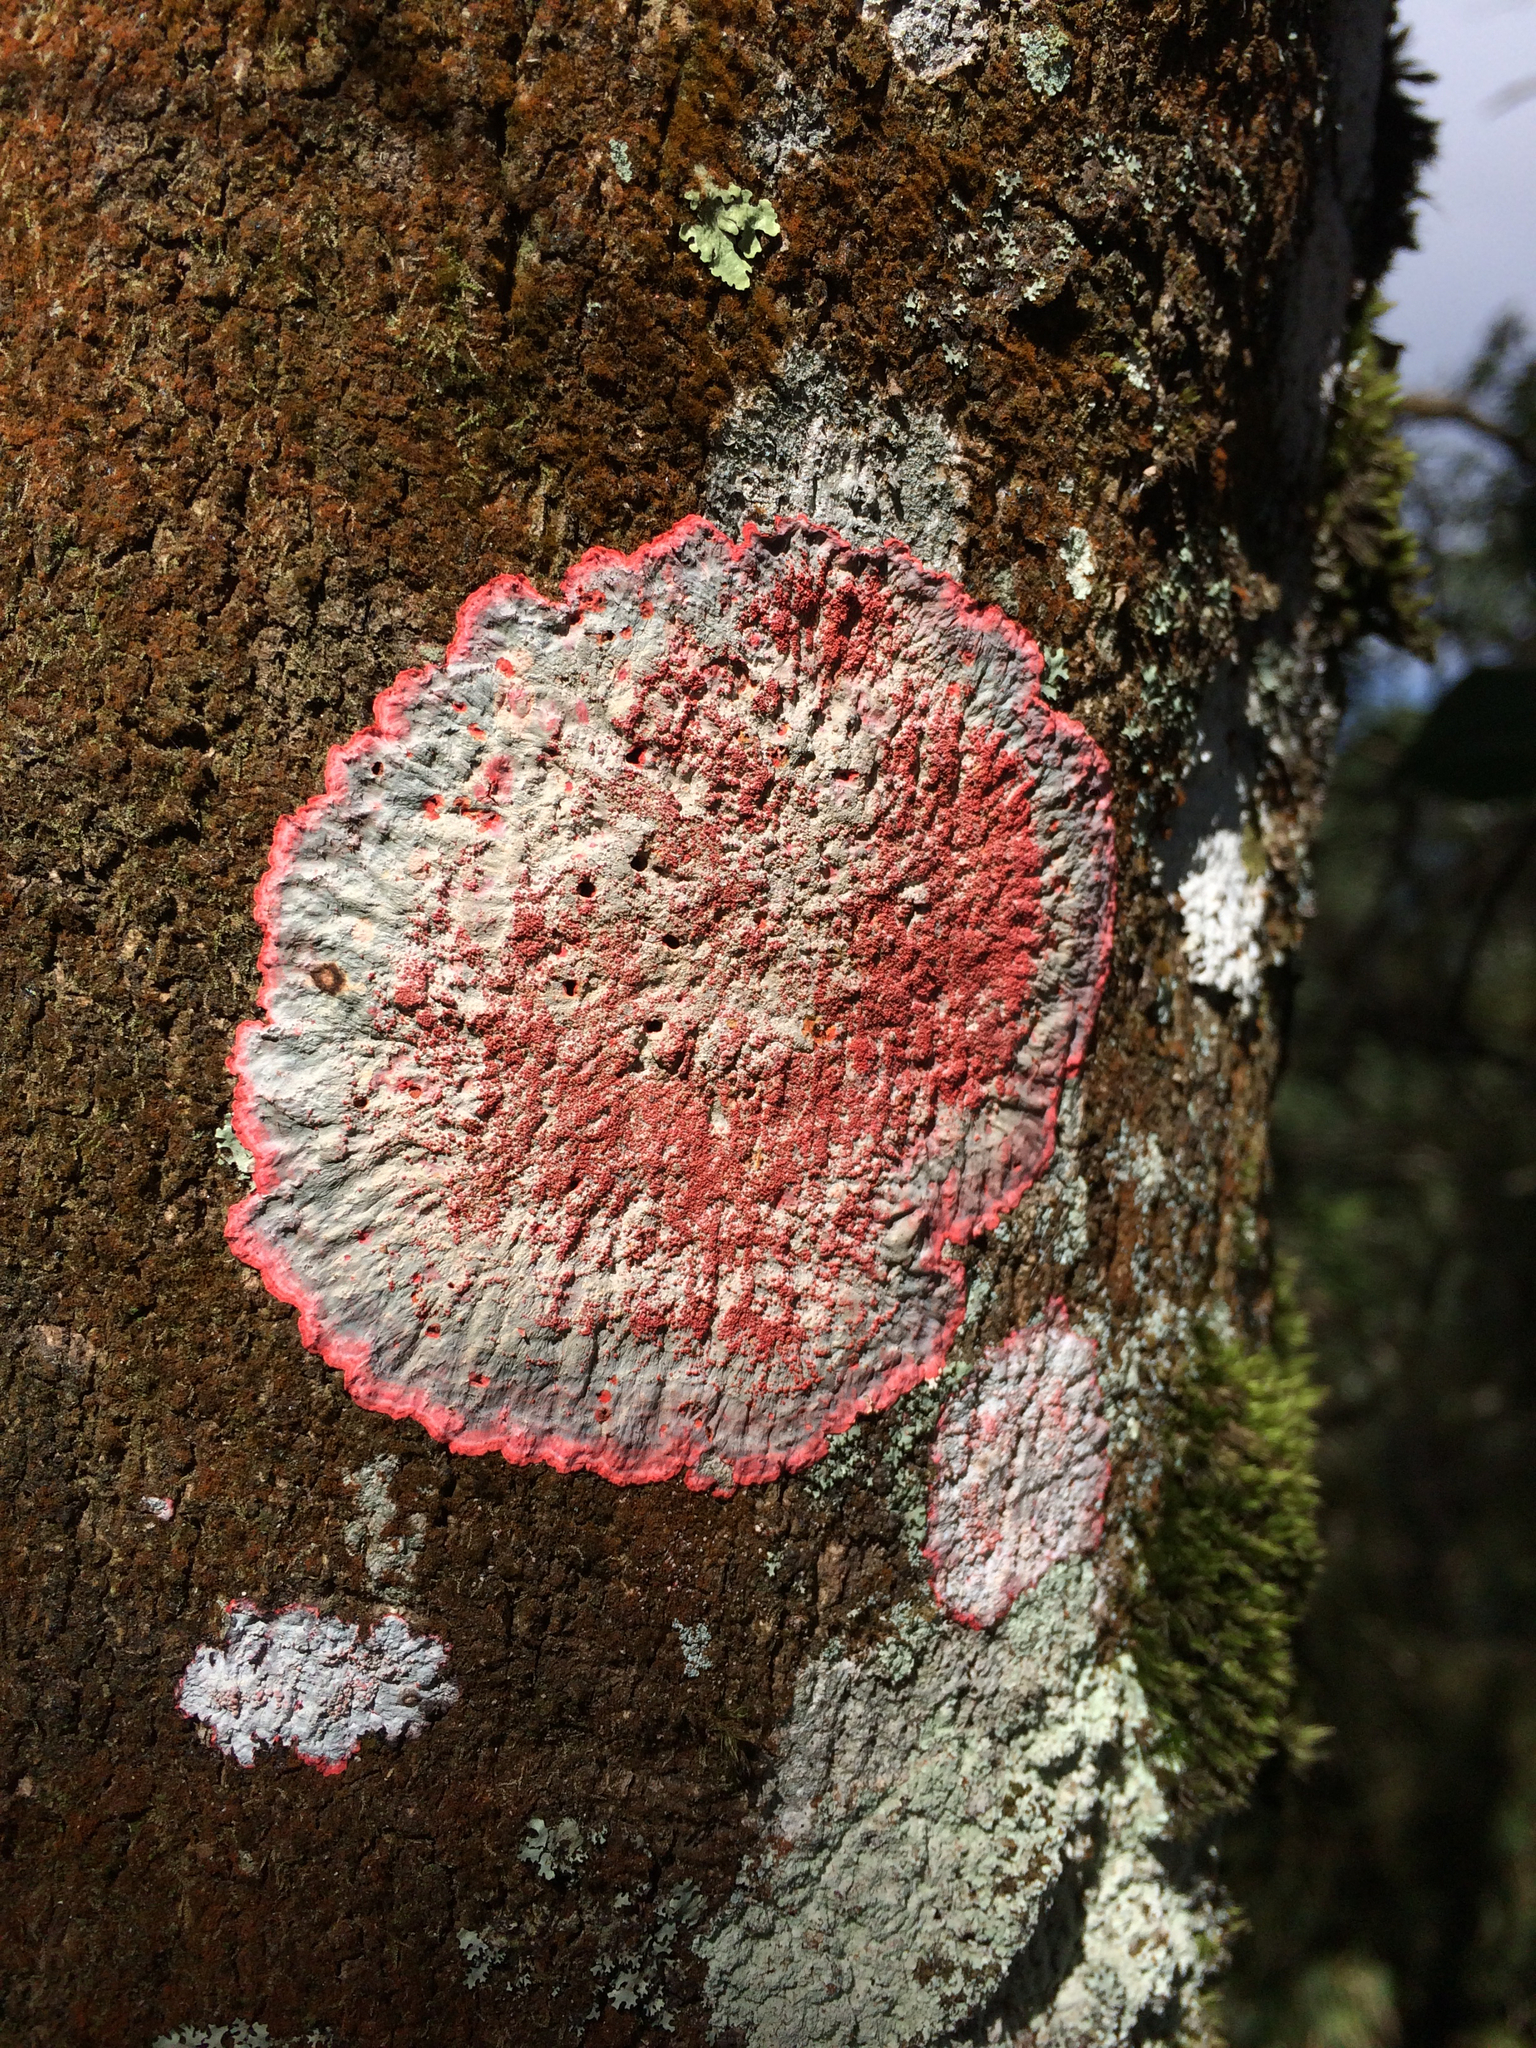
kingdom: Fungi
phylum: Ascomycota
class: Arthoniomycetes
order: Arthoniales
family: Arthoniaceae
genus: Herpothallon
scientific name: Herpothallon rubrocinctum
